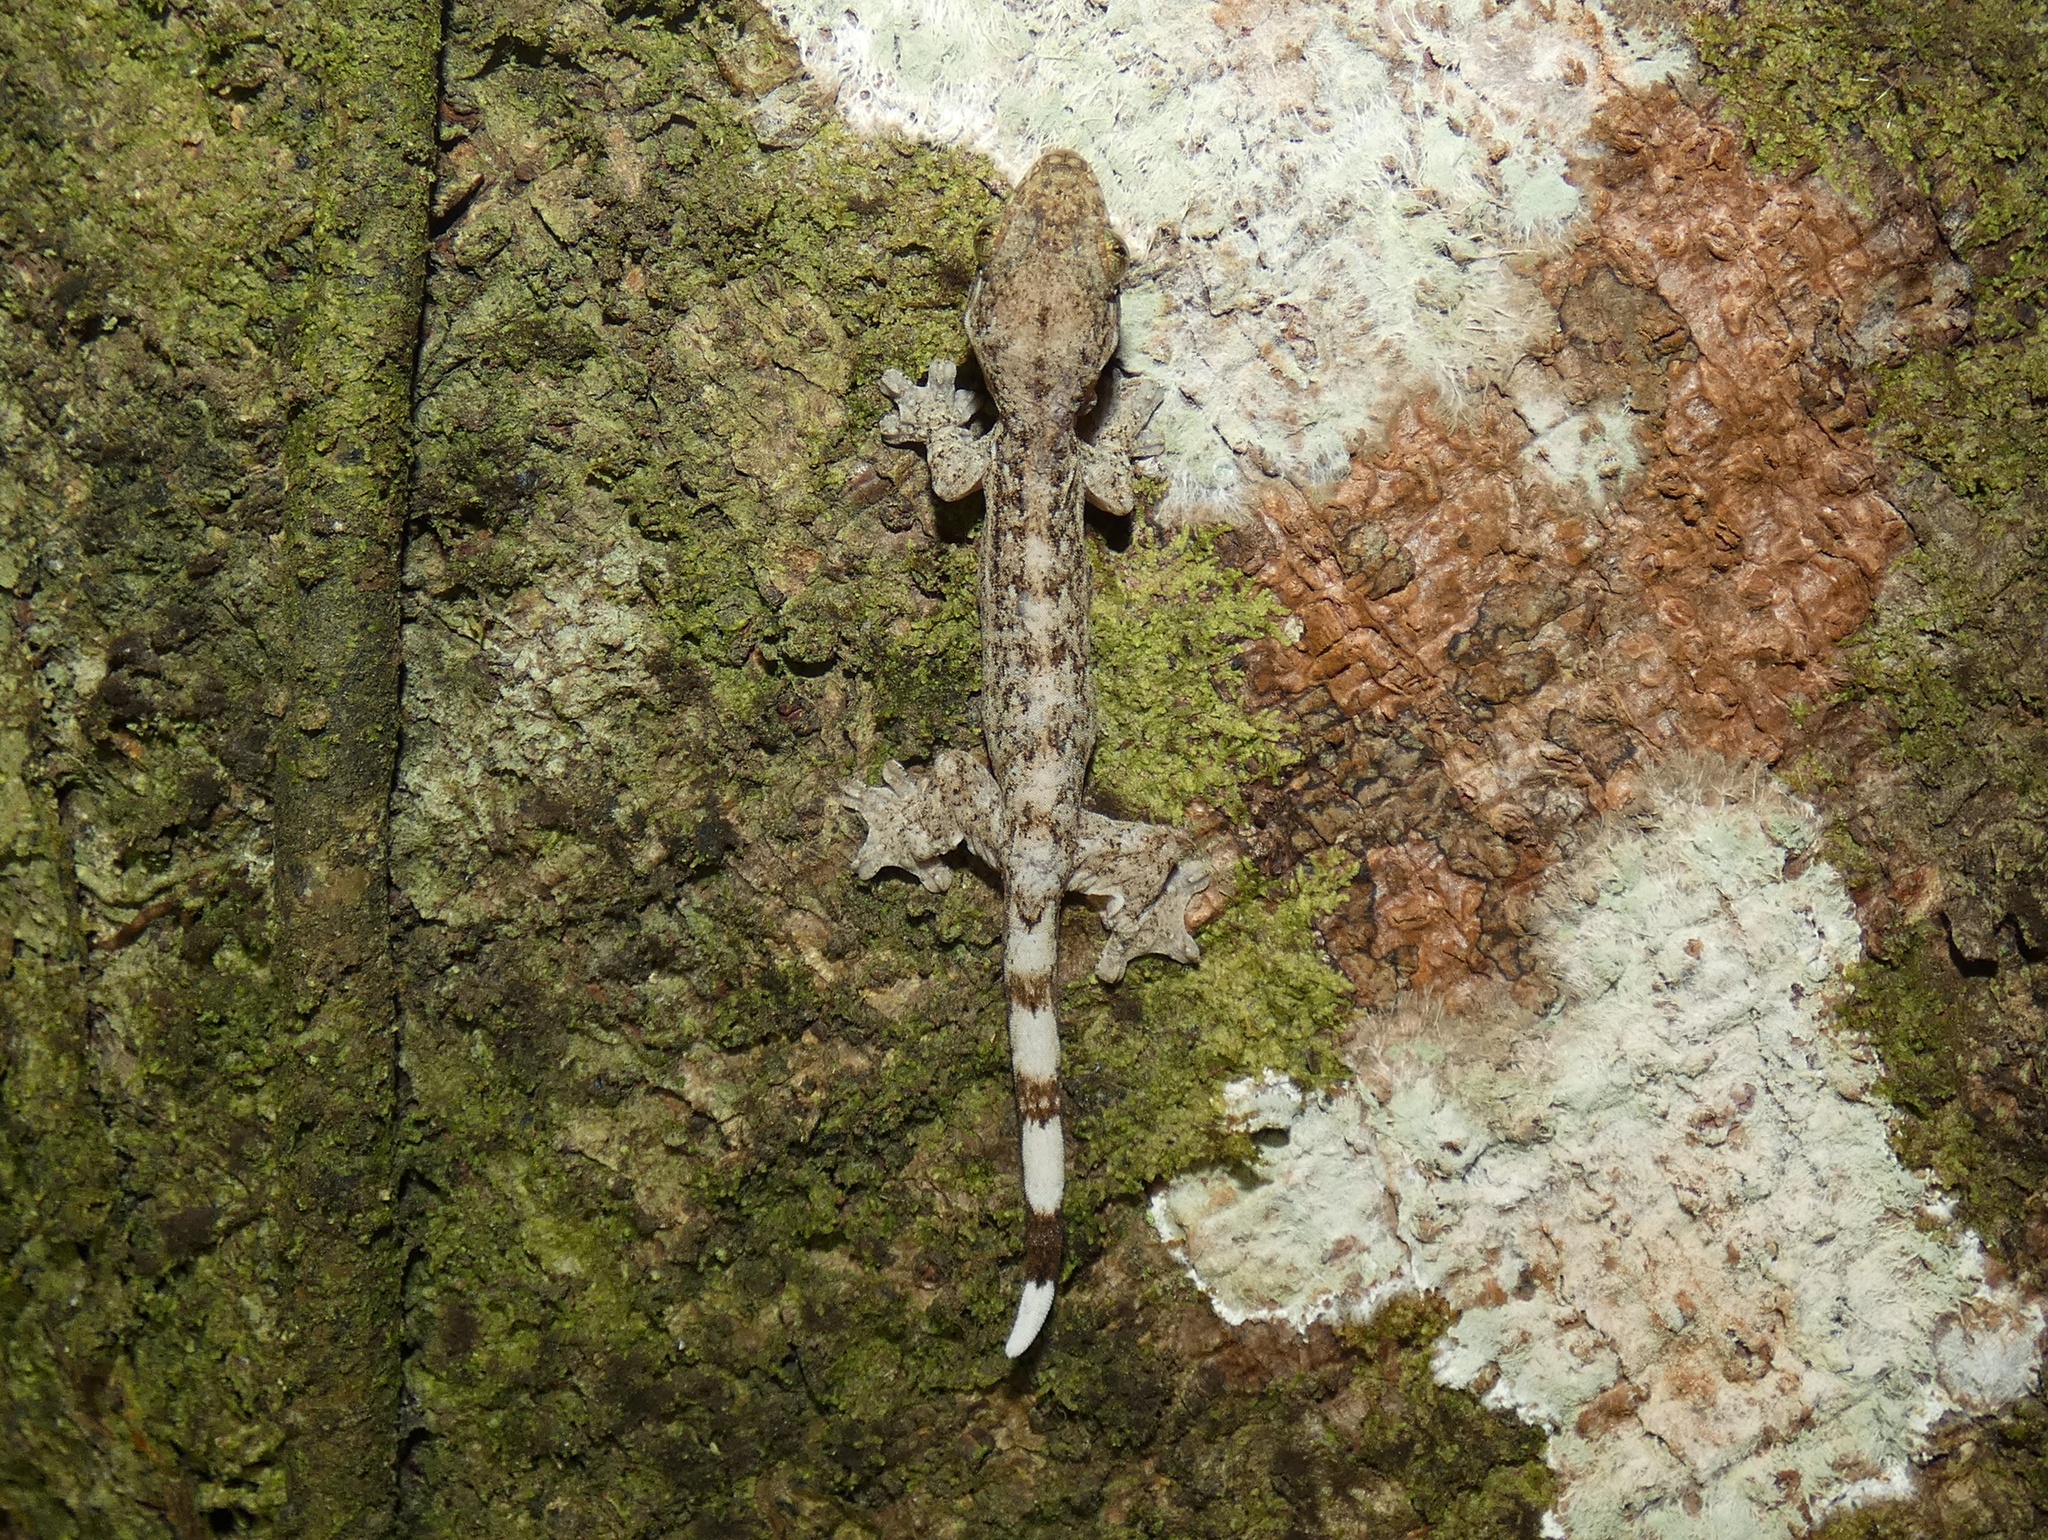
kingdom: Animalia
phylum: Chordata
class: Squamata
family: Phyllodactylidae
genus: Thecadactylus
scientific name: Thecadactylus rapicauda
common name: Turnip-tailed gecko
